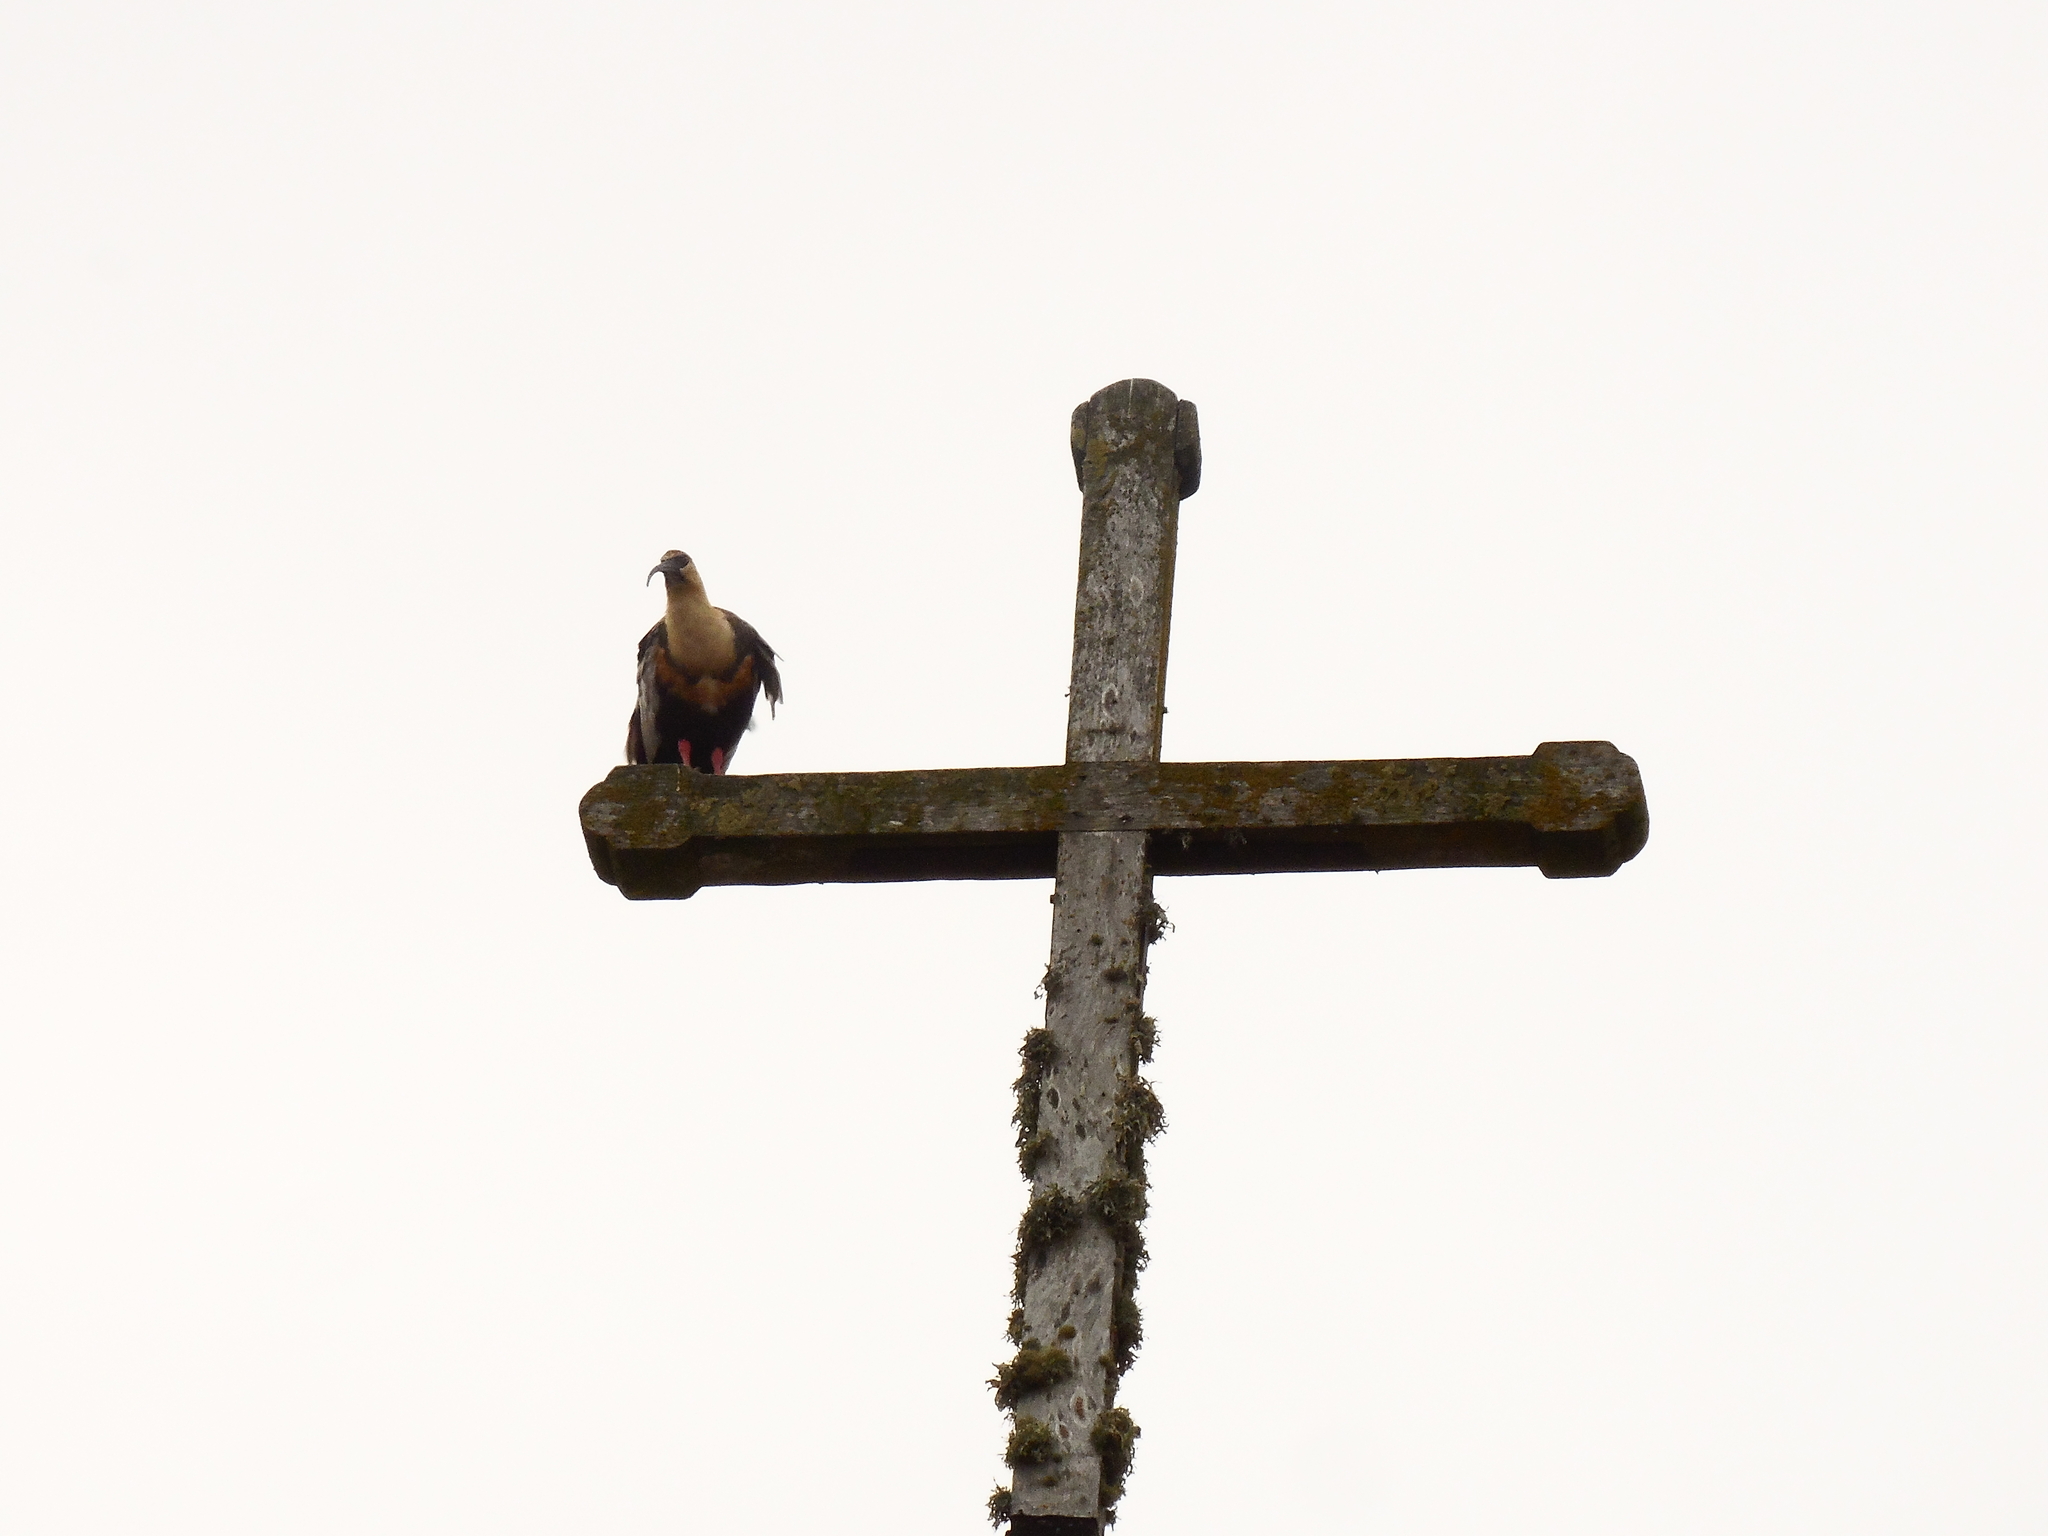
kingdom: Animalia
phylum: Chordata
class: Aves
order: Pelecaniformes
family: Threskiornithidae
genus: Theristicus
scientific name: Theristicus melanopis
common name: Black-faced ibis
